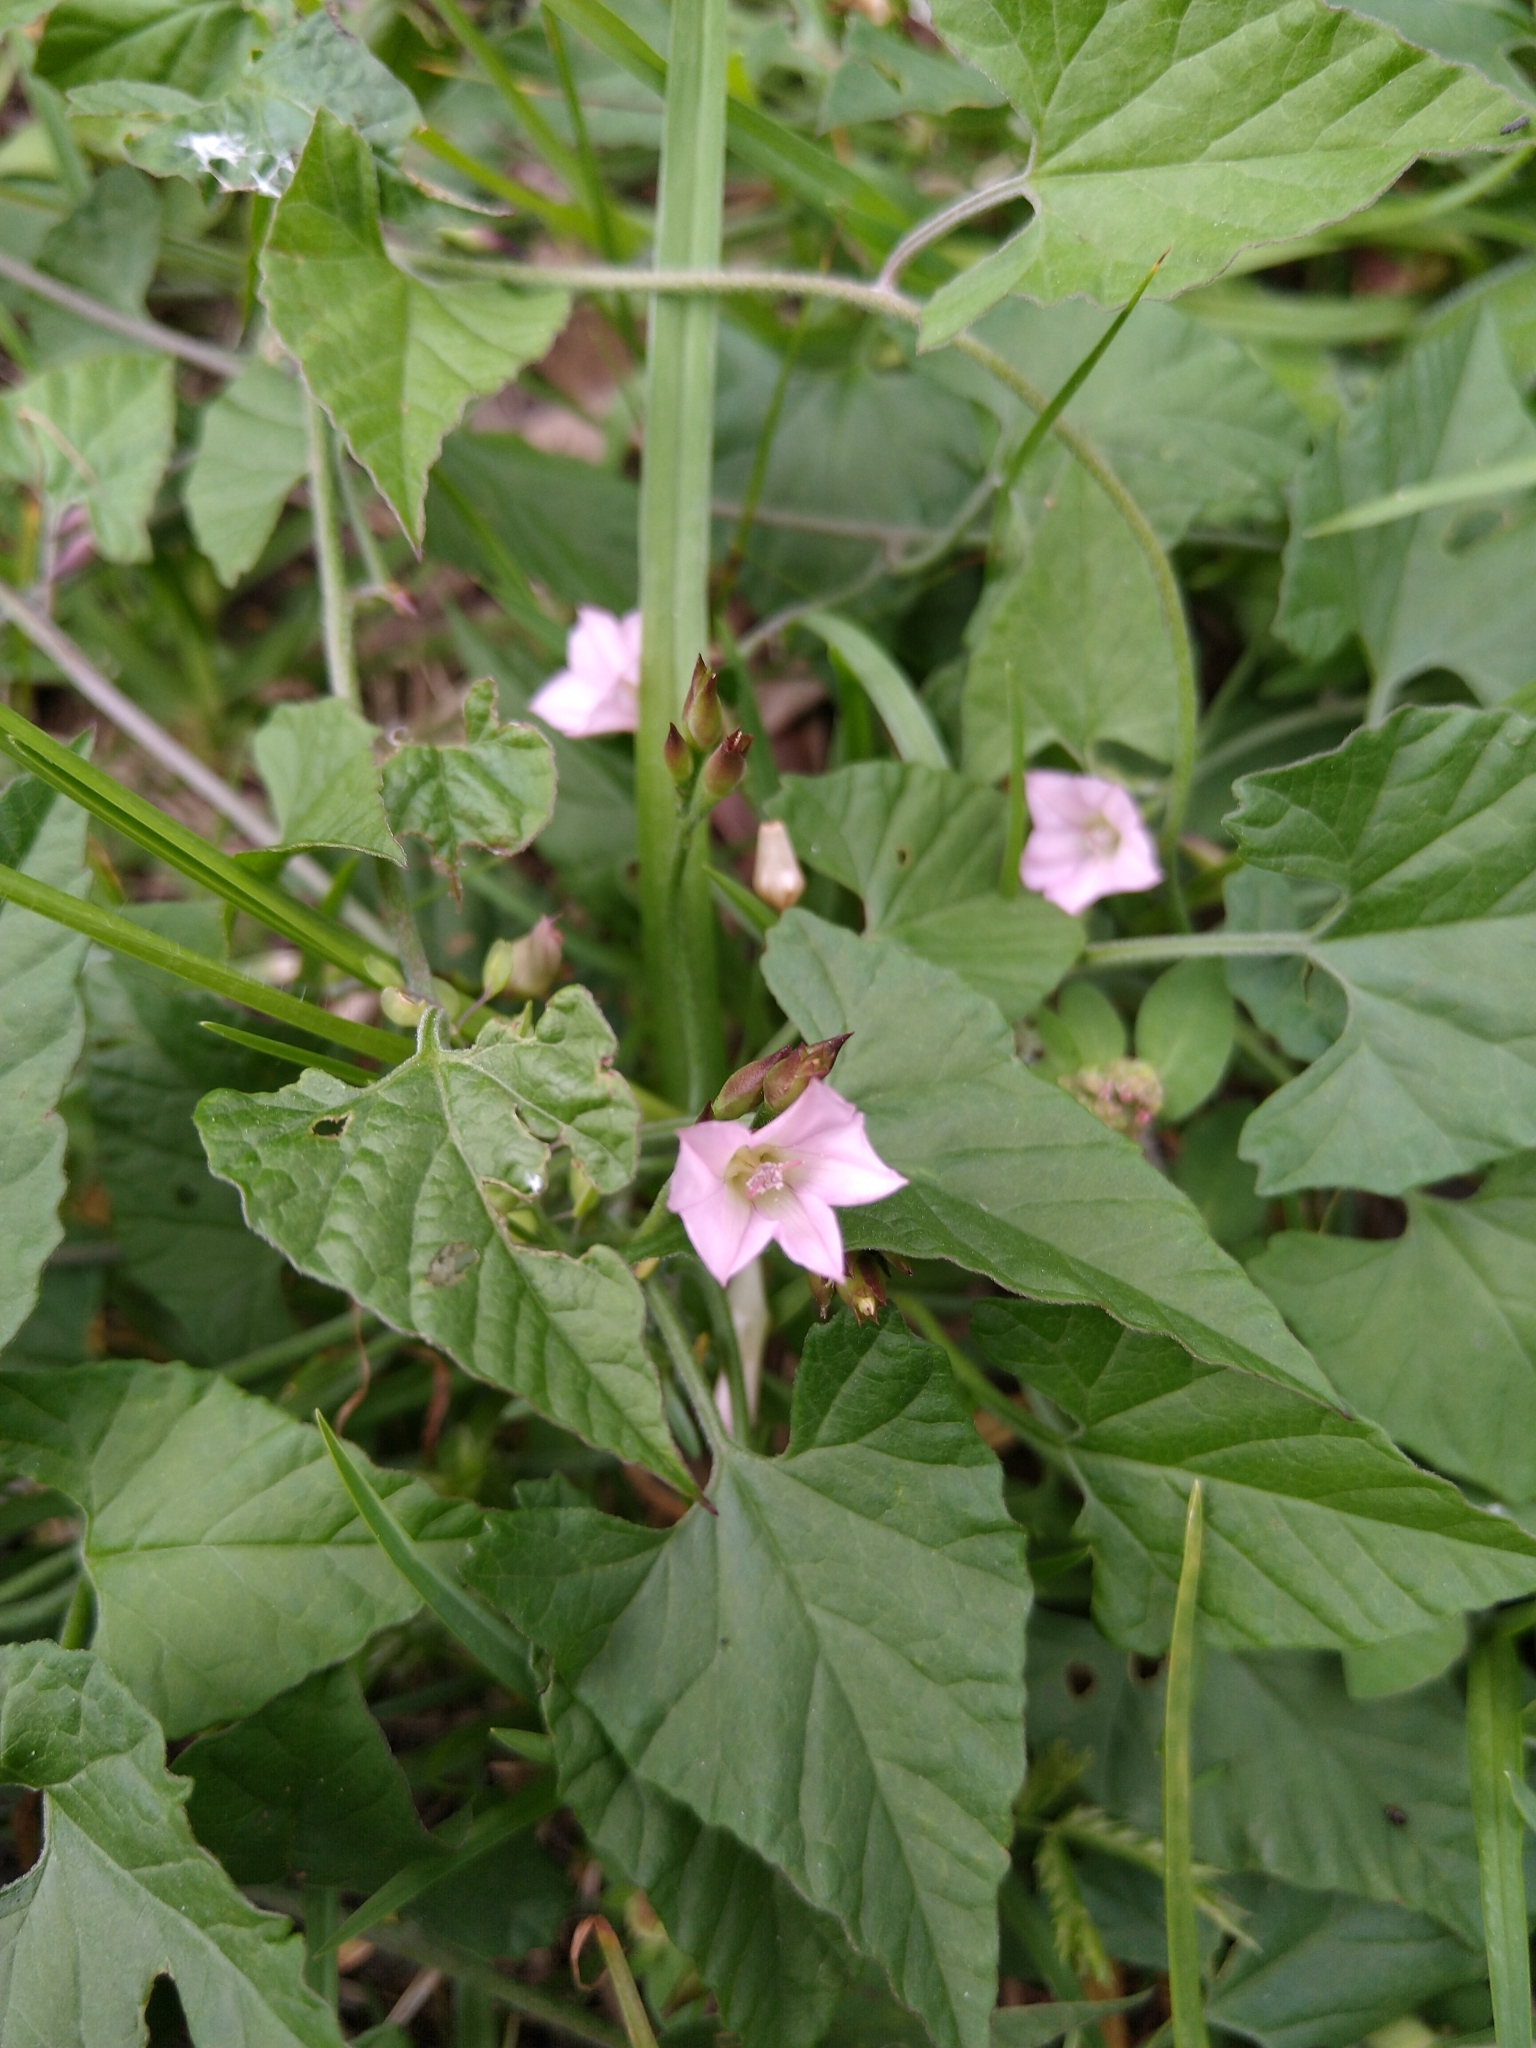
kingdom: Plantae
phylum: Tracheophyta
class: Magnoliopsida
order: Solanales
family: Convolvulaceae
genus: Convolvulus
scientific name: Convolvulus crenatifolius
